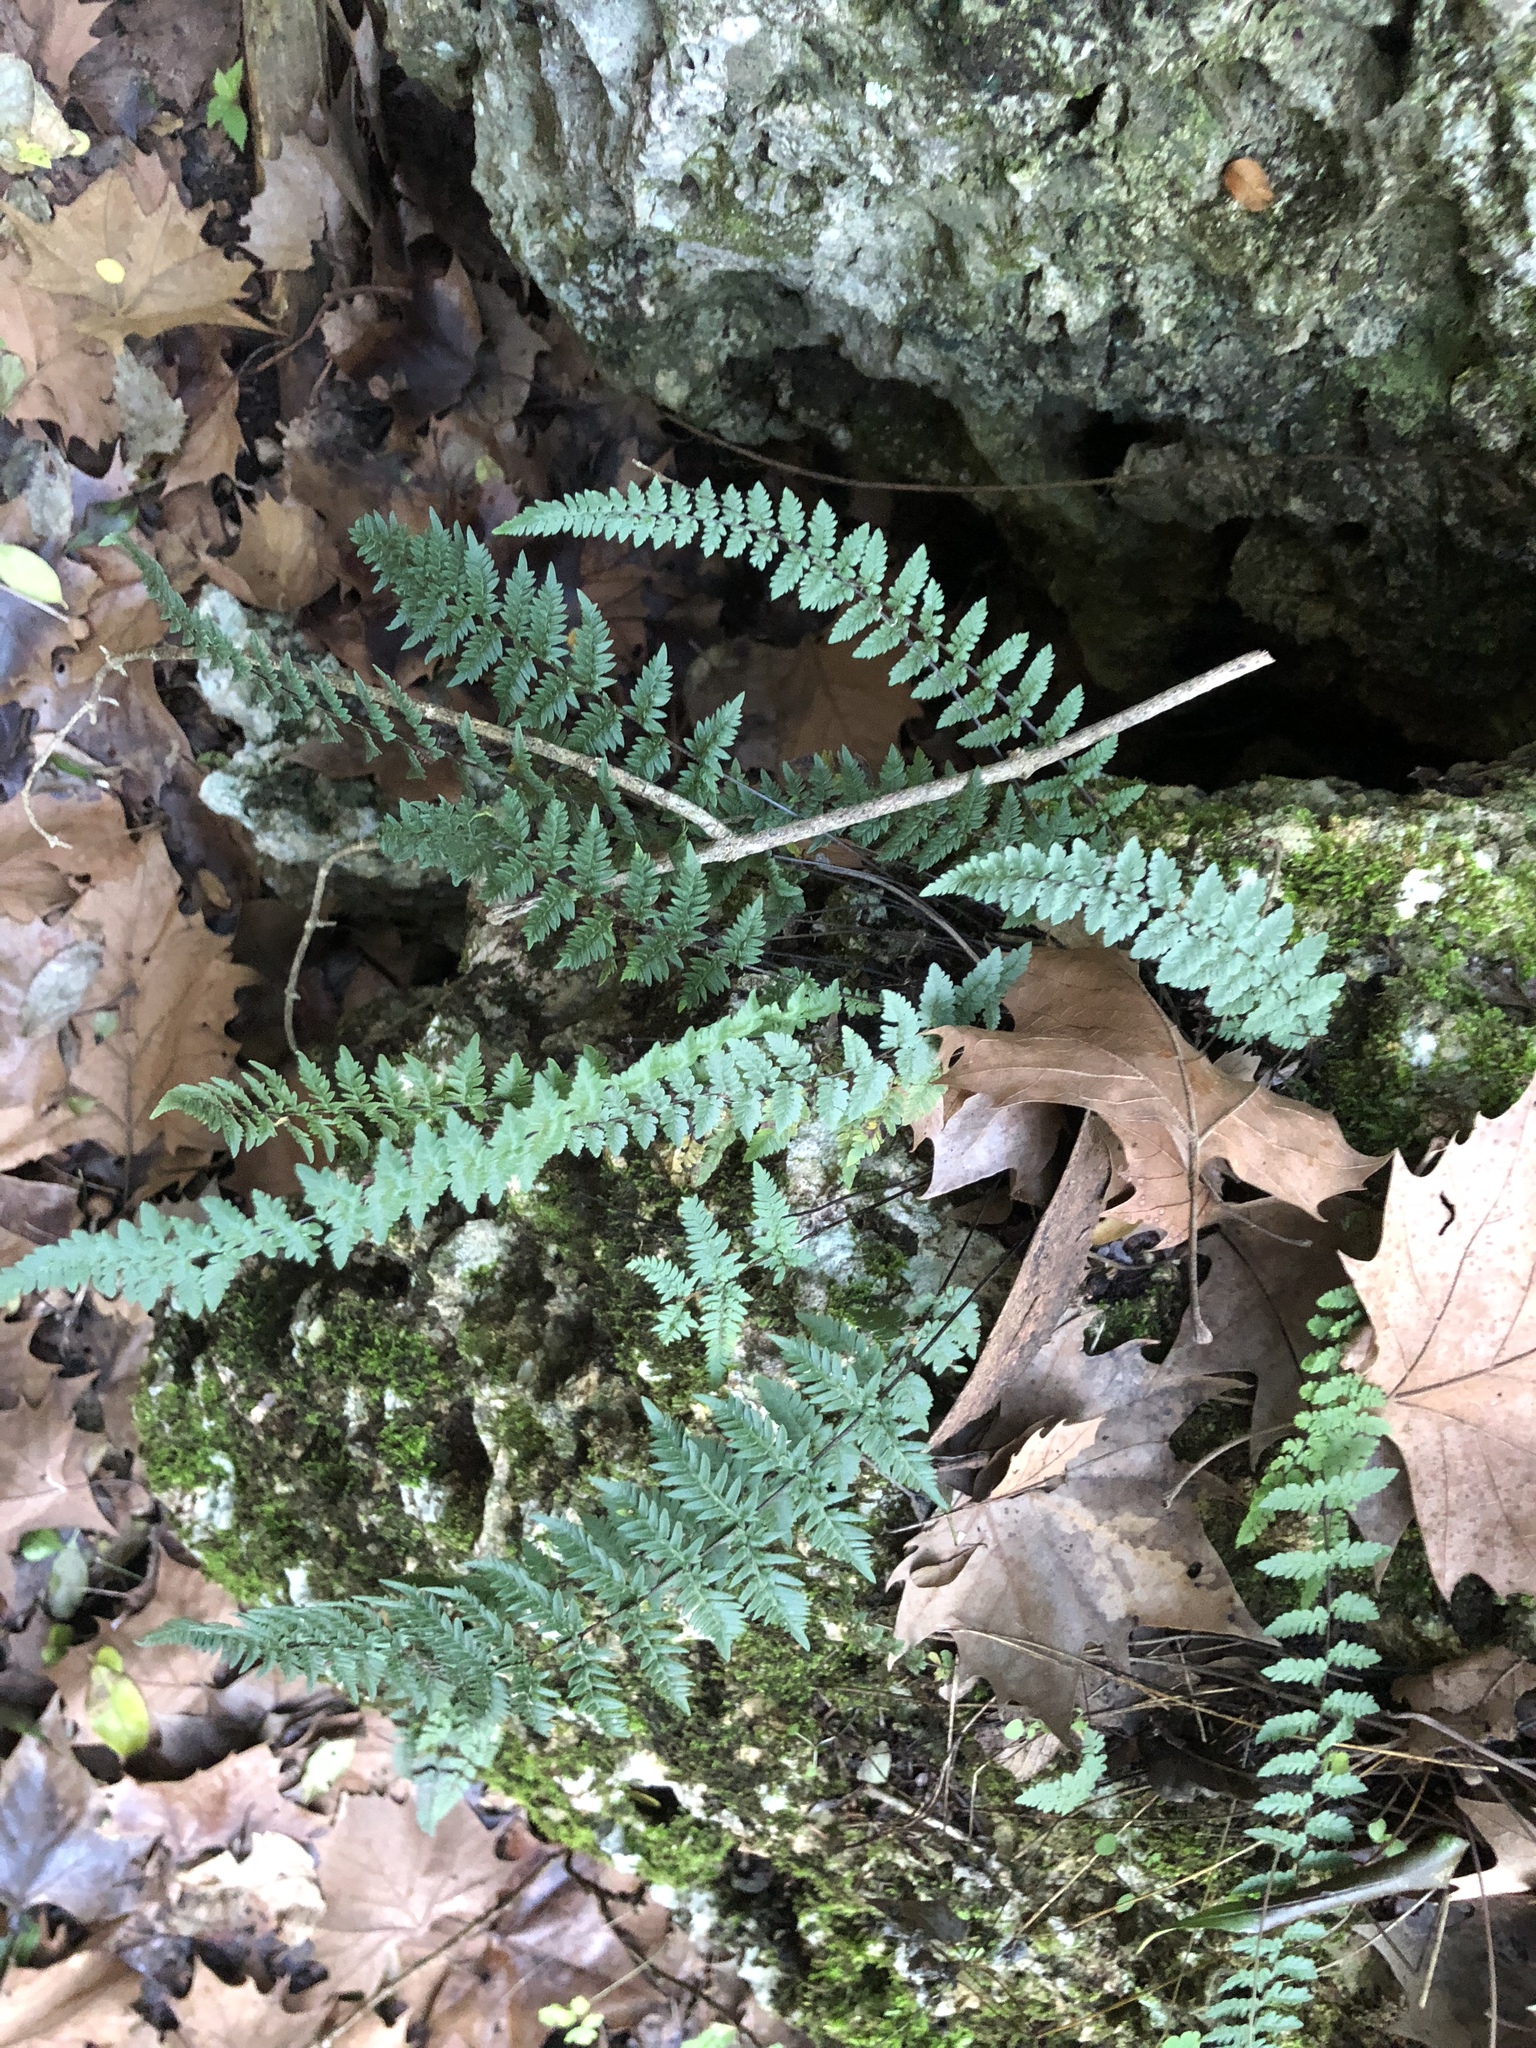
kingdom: Plantae
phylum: Tracheophyta
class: Polypodiopsida
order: Polypodiales
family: Pteridaceae
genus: Myriopteris
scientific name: Myriopteris alabamensis
